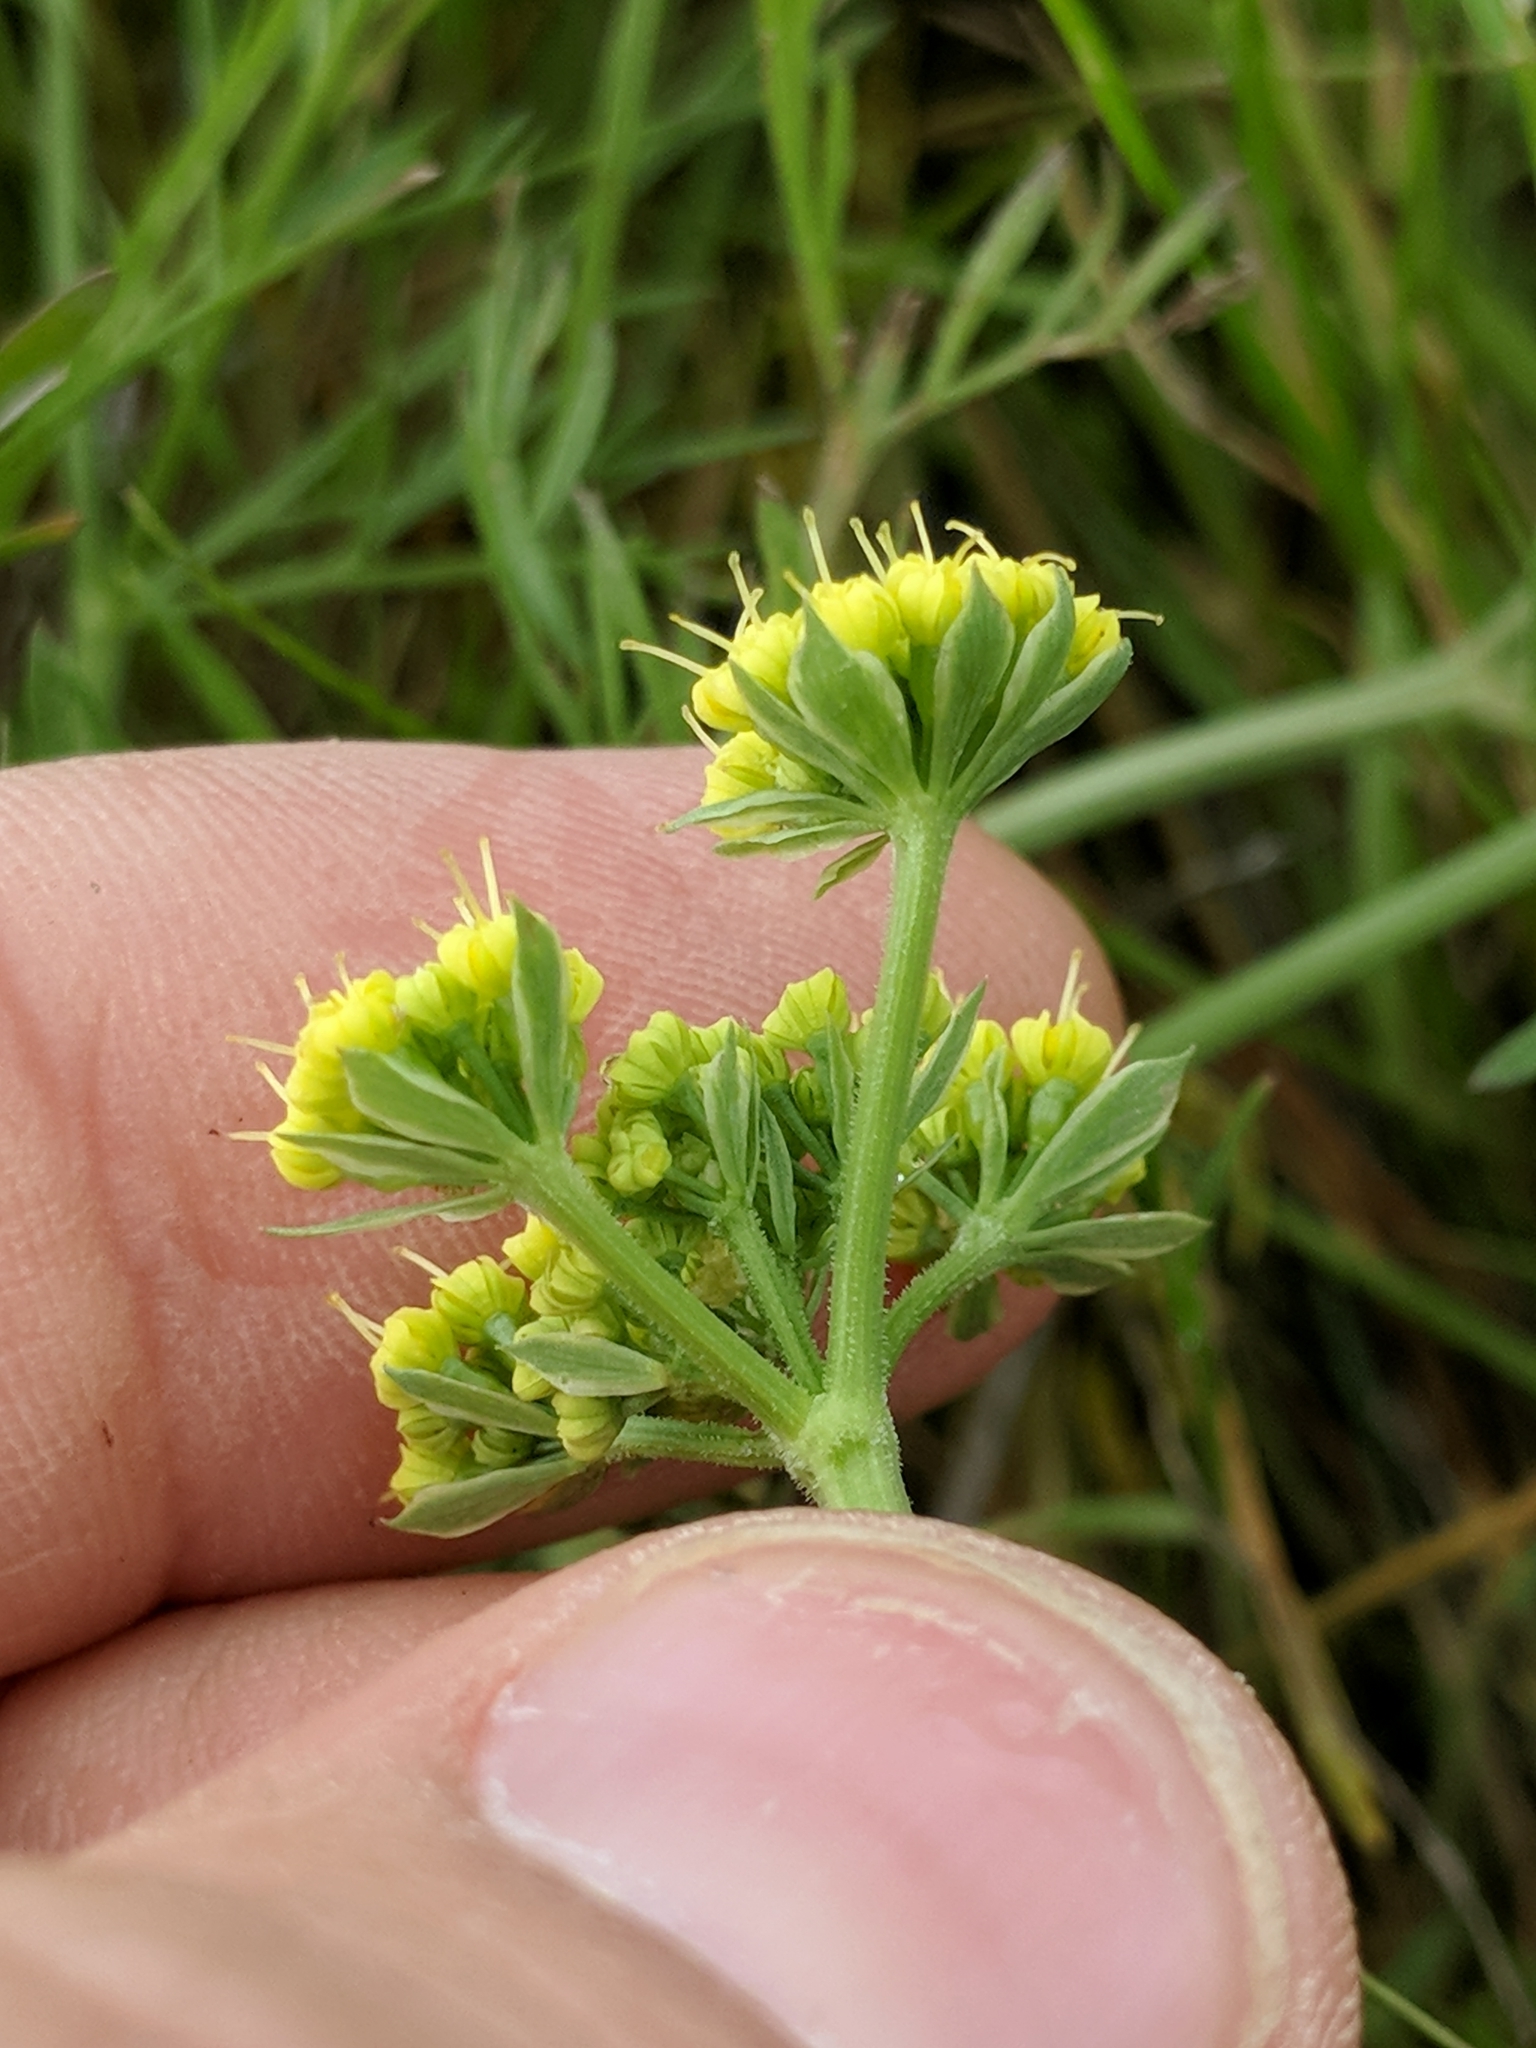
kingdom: Plantae
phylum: Tracheophyta
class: Magnoliopsida
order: Apiales
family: Apiaceae
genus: Lomatium
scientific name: Lomatium caruifolium
